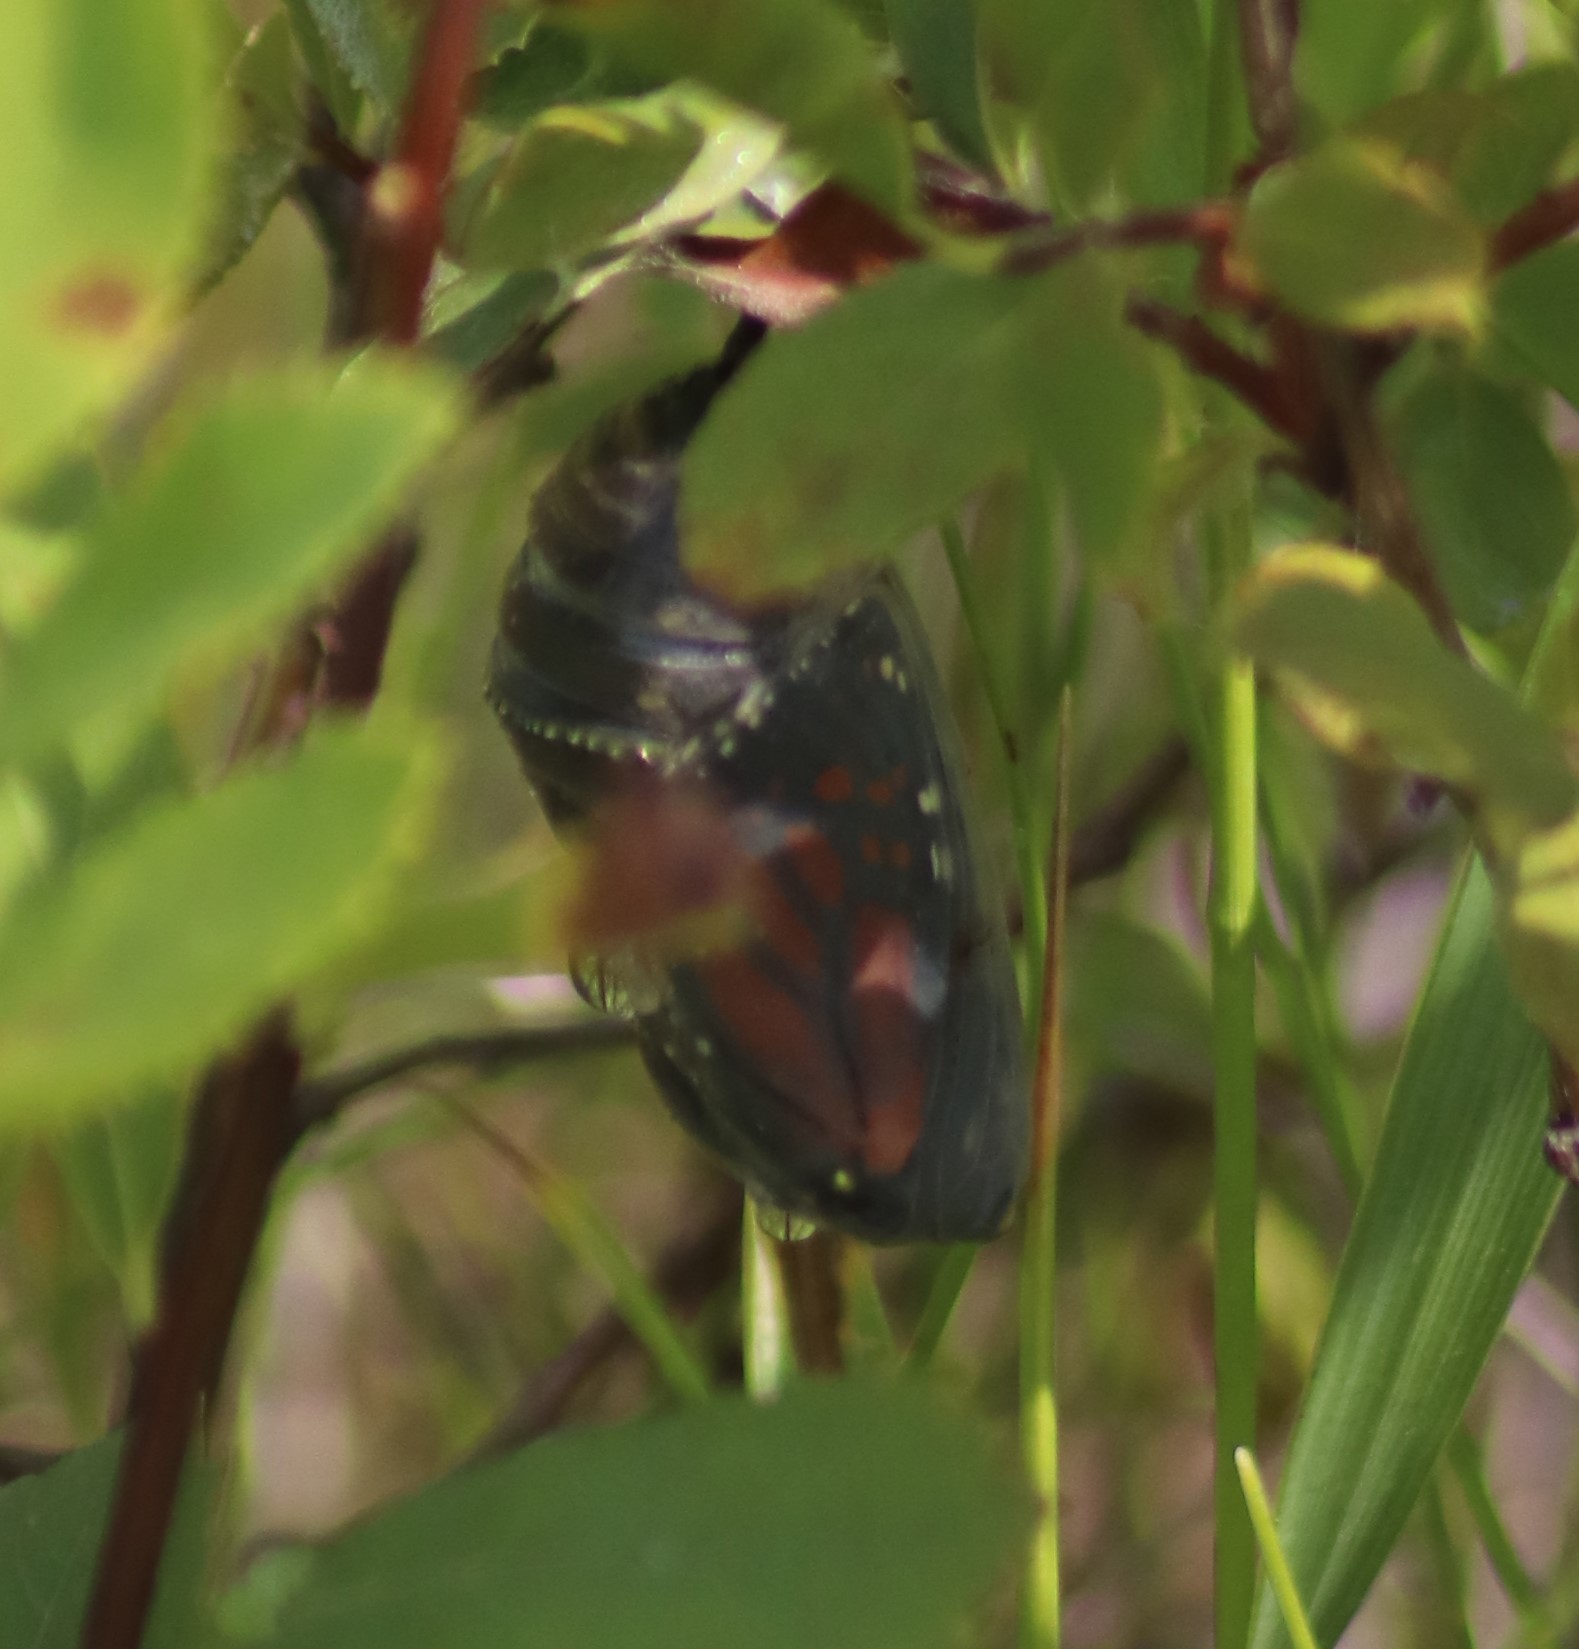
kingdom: Animalia
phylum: Arthropoda
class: Insecta
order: Lepidoptera
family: Nymphalidae
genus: Danaus
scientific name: Danaus plexippus
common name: Monarch
